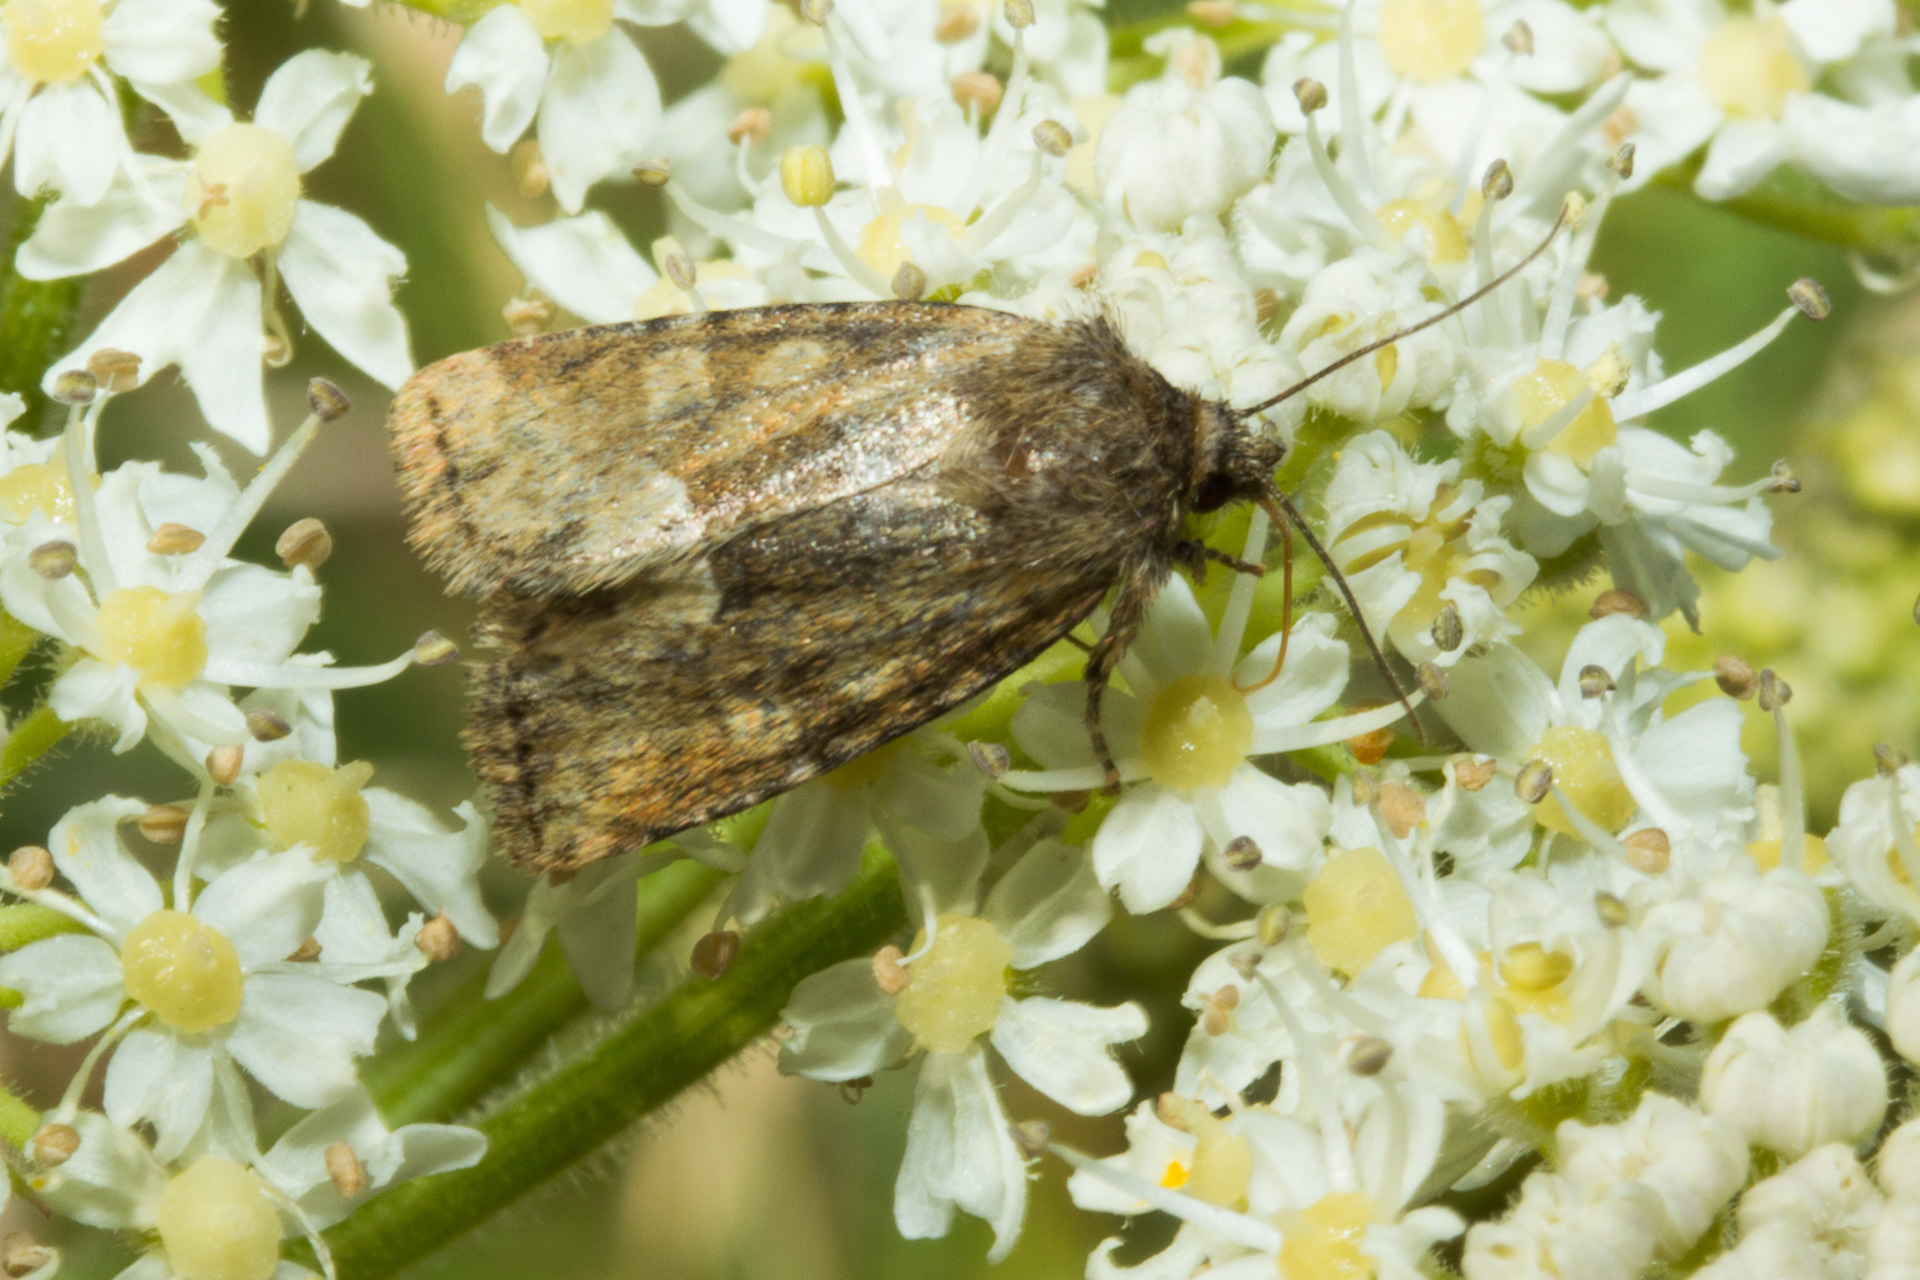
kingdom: Animalia
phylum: Arthropoda
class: Insecta
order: Lepidoptera
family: Noctuidae
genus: Oligia
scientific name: Oligia fasciuncula
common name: Middle-barred minor
